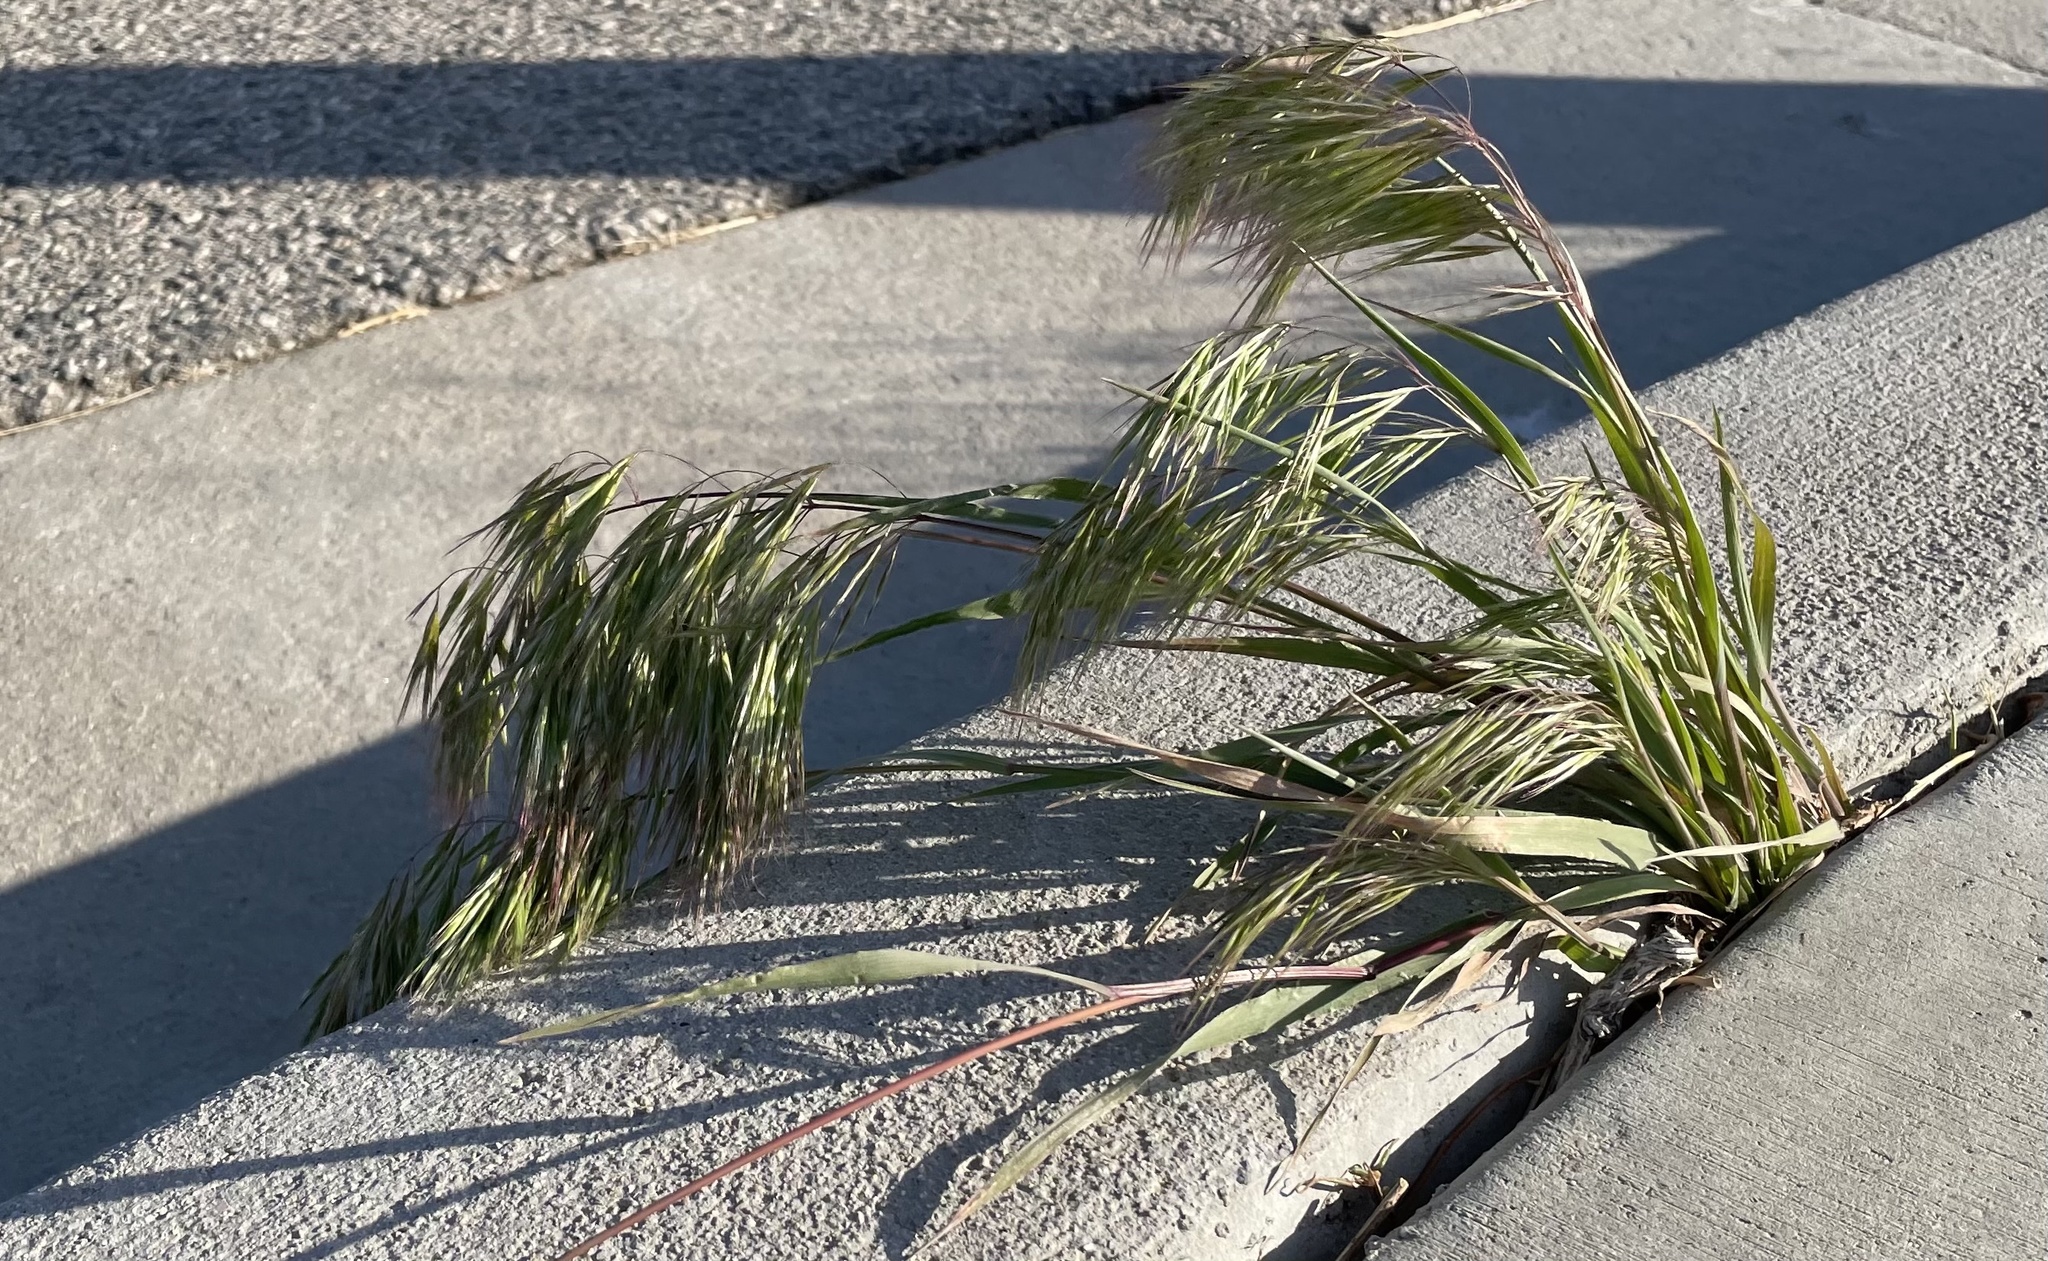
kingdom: Plantae
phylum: Tracheophyta
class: Liliopsida
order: Poales
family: Poaceae
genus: Bromus
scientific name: Bromus tectorum
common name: Cheatgrass
